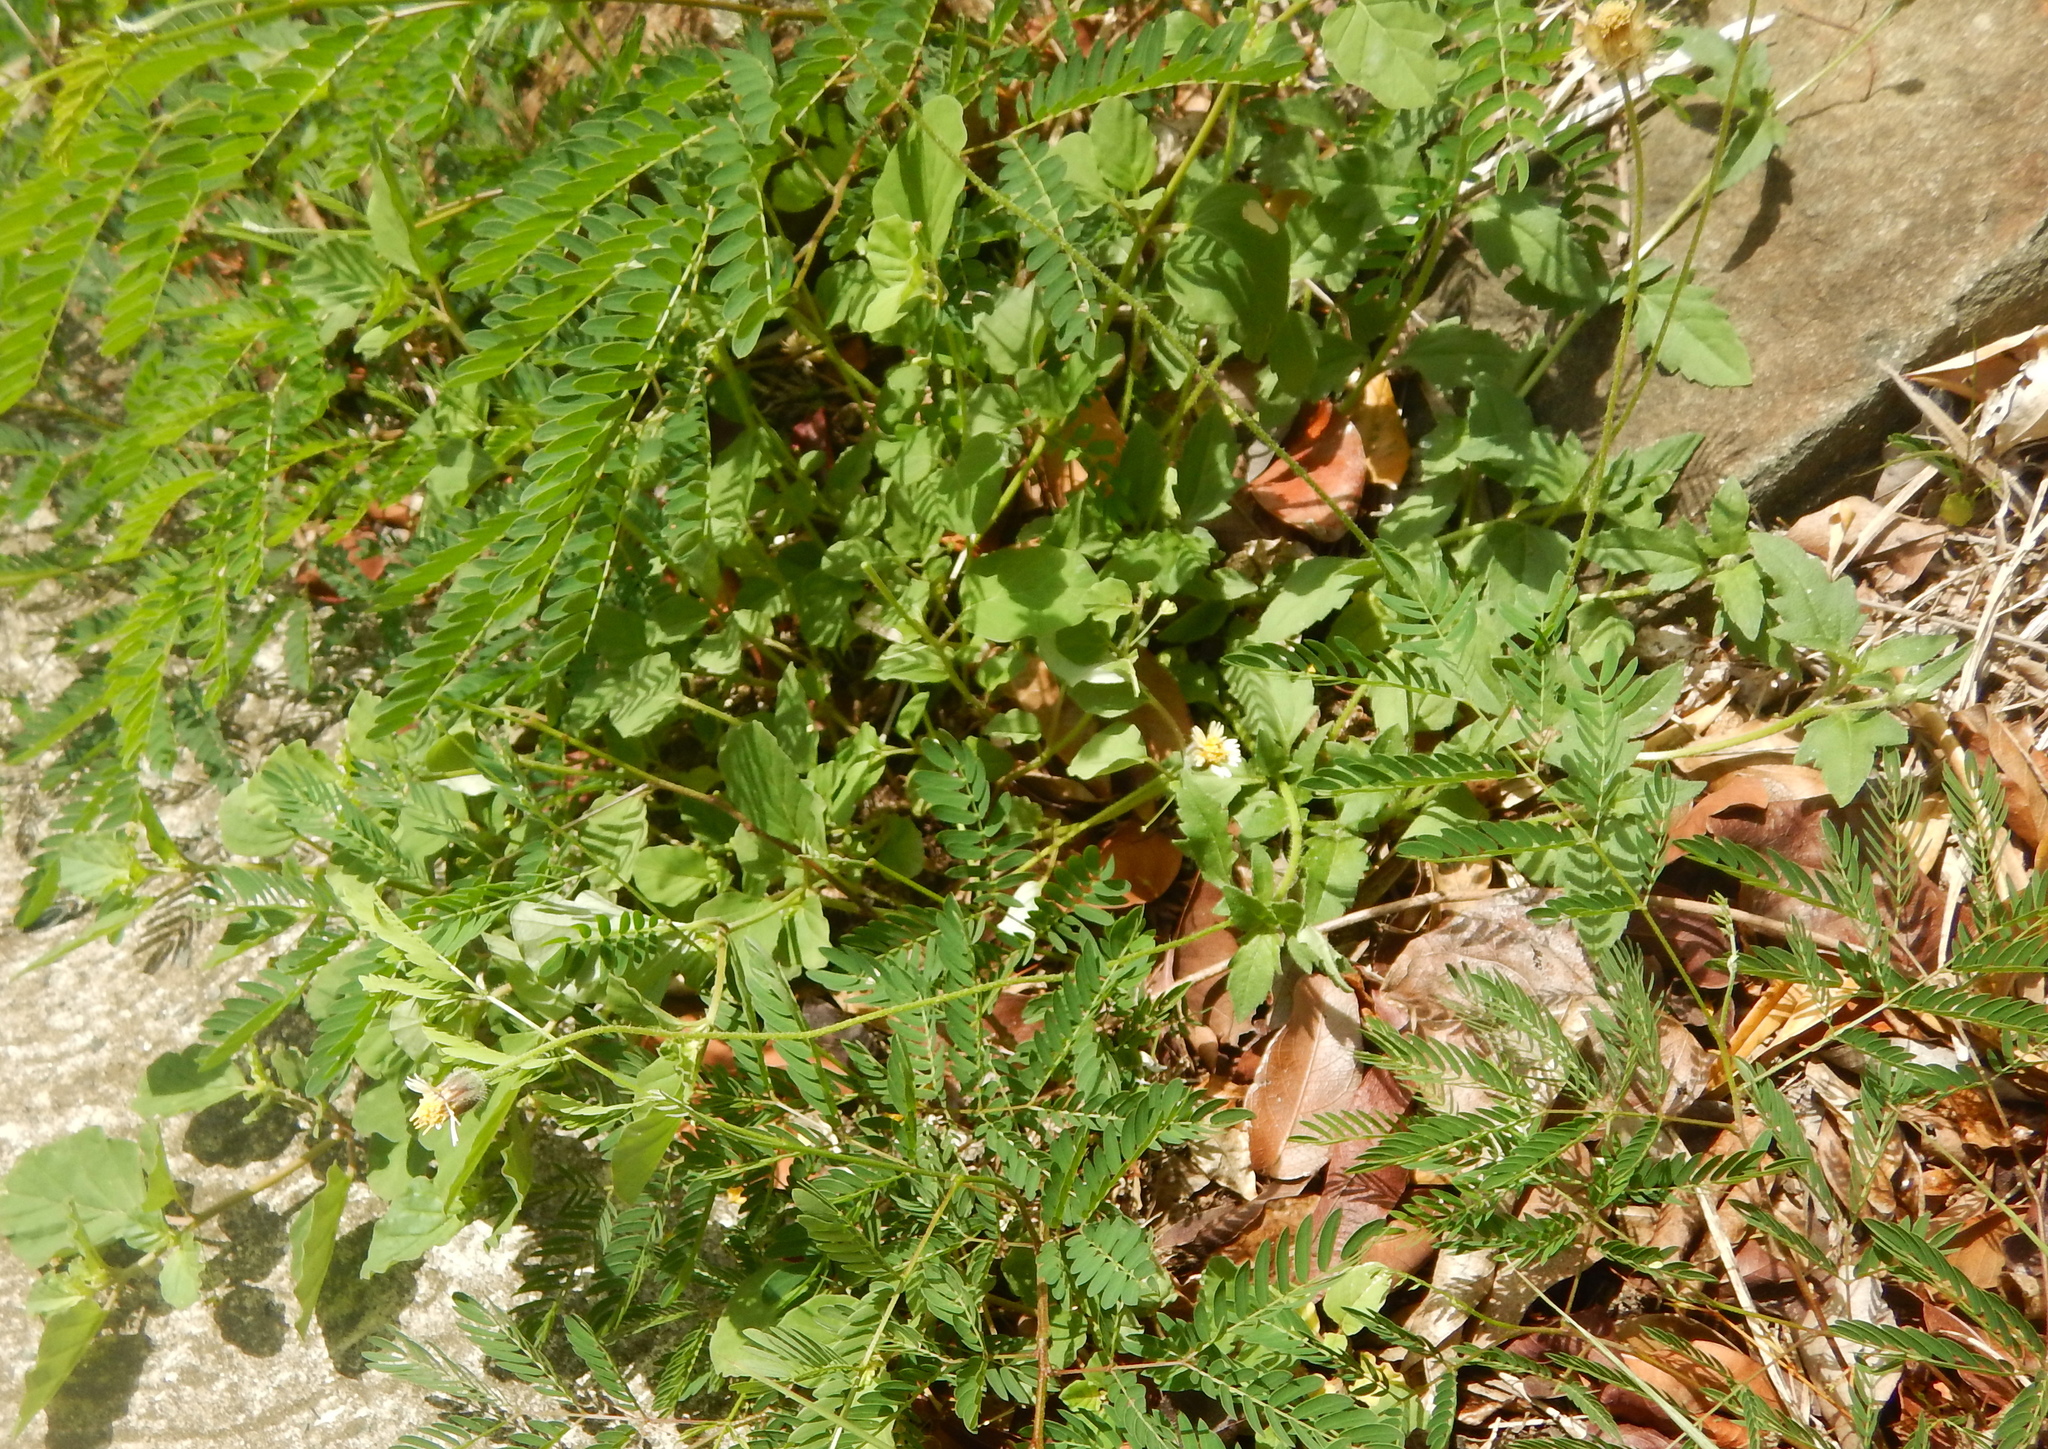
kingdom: Plantae
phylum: Tracheophyta
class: Magnoliopsida
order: Asterales
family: Asteraceae
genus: Tridax
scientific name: Tridax procumbens
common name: Coatbuttons
